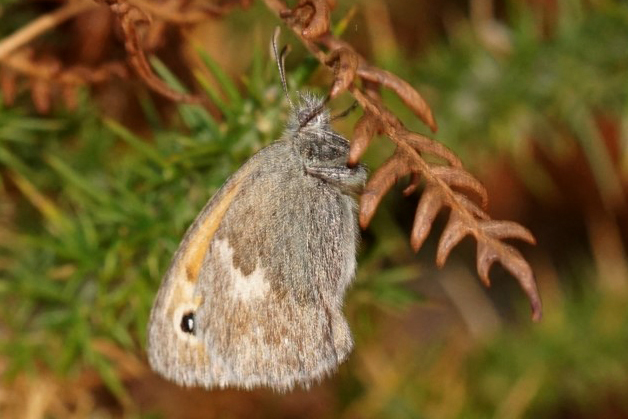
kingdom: Animalia
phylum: Arthropoda
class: Insecta
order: Lepidoptera
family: Nymphalidae
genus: Coenonympha
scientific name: Coenonympha pamphilus
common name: Small heath
